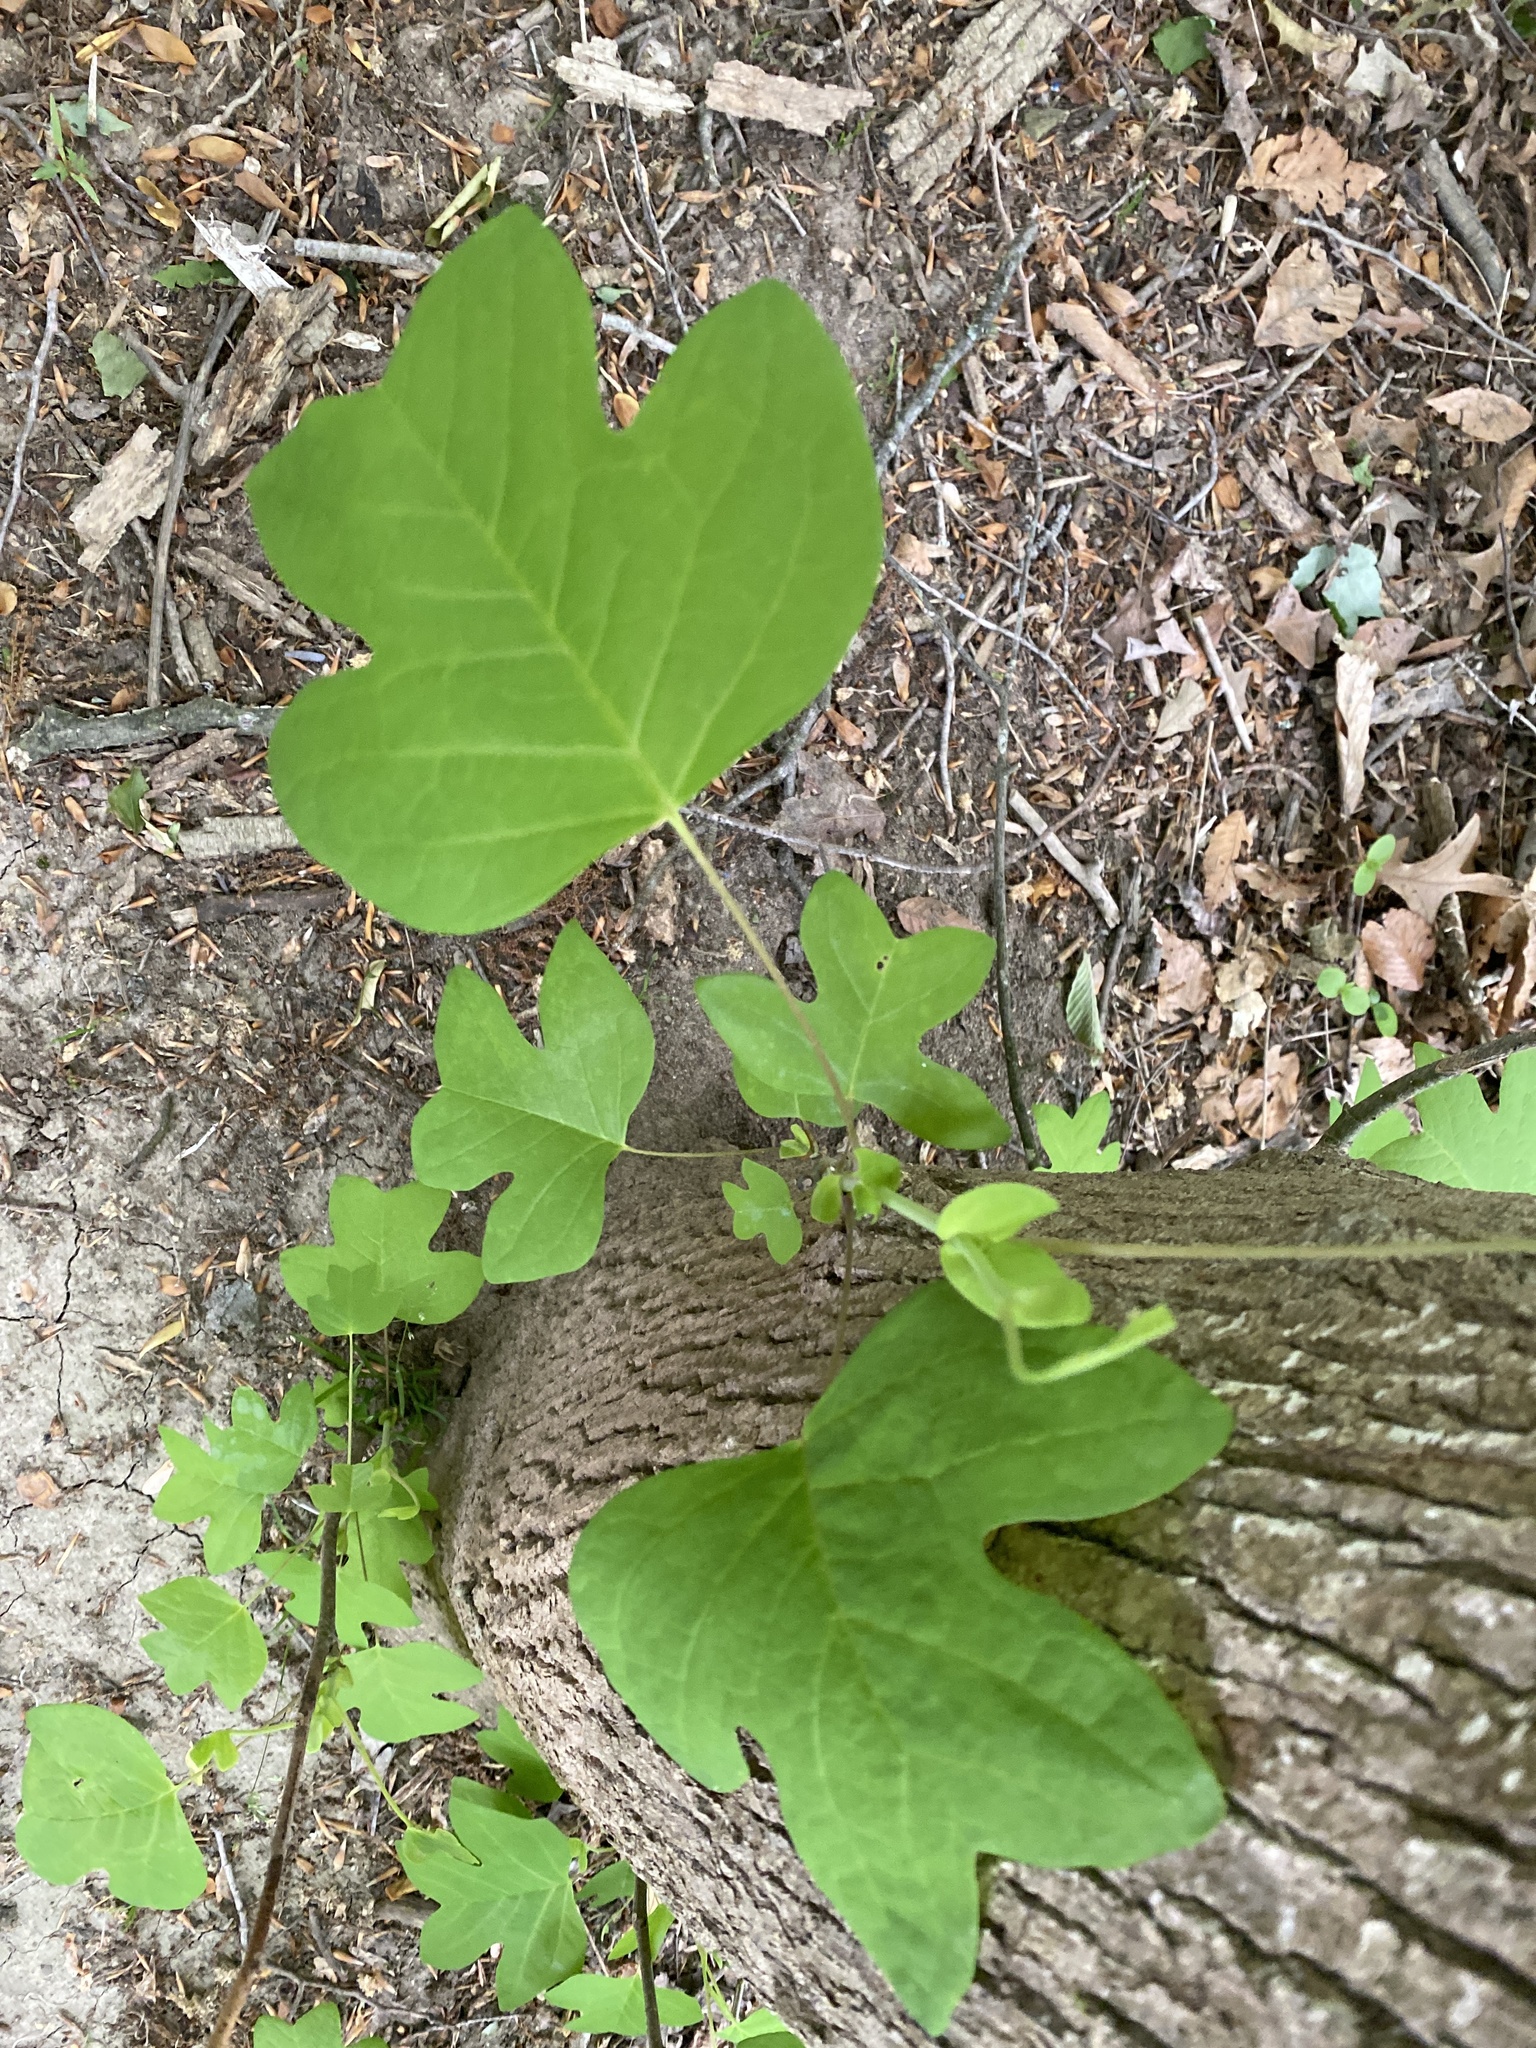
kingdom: Plantae
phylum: Tracheophyta
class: Magnoliopsida
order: Magnoliales
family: Magnoliaceae
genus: Liriodendron
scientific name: Liriodendron tulipifera
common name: Tulip tree
